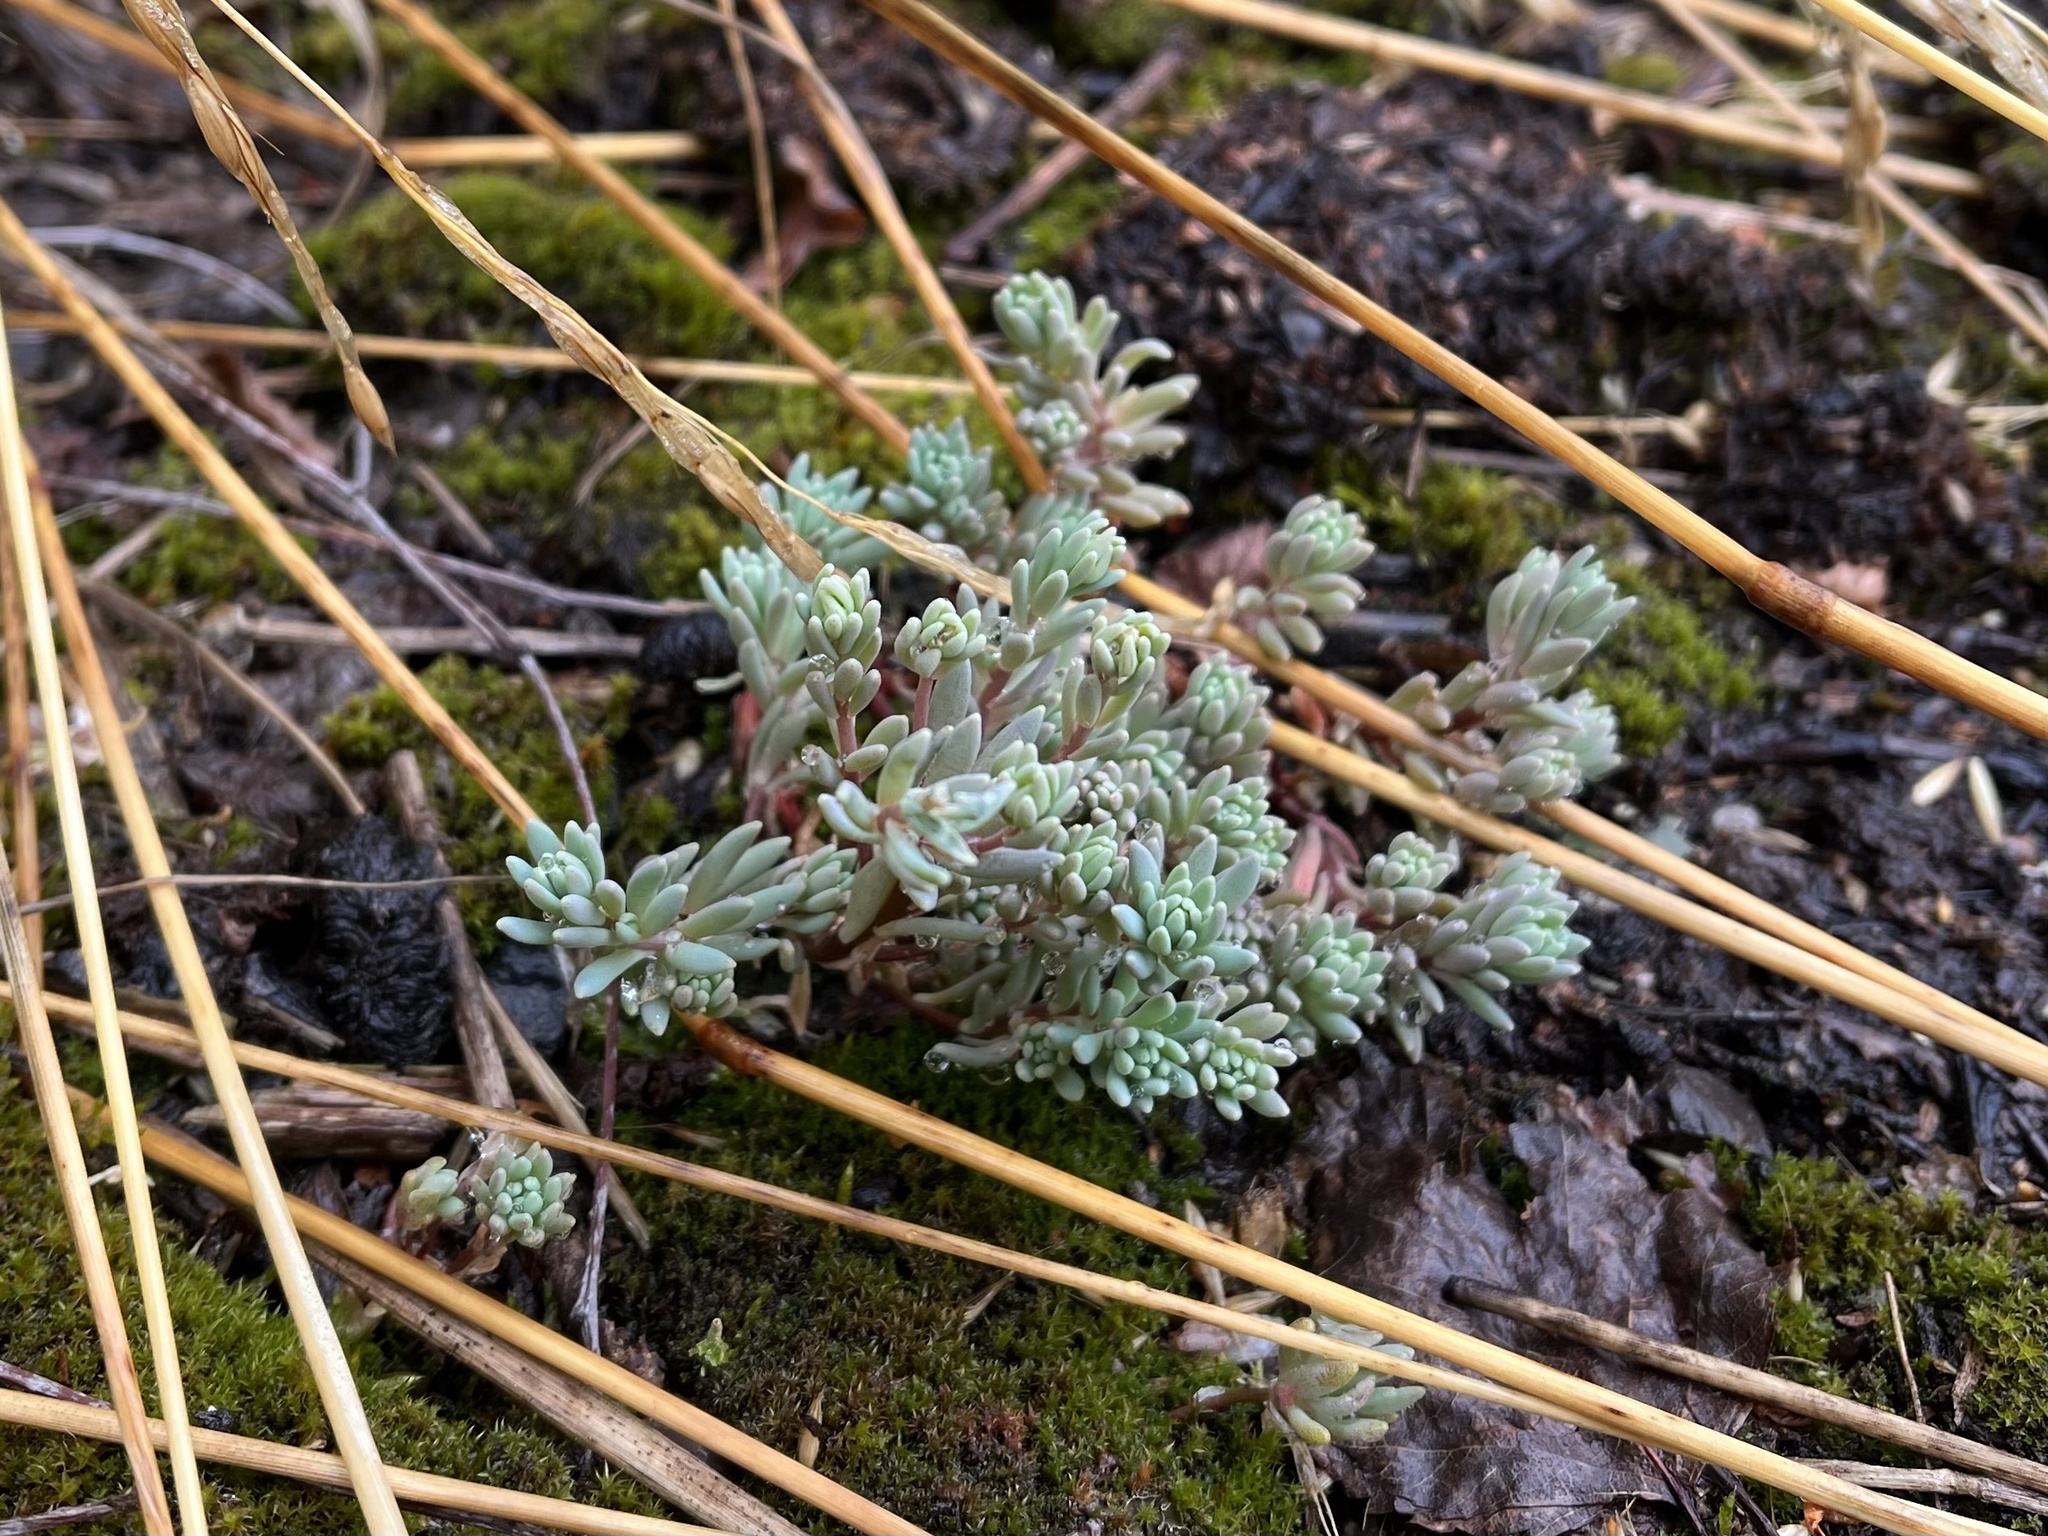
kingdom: Plantae
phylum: Tracheophyta
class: Magnoliopsida
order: Saxifragales
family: Crassulaceae
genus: Sedum
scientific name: Sedum hispanicum
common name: Spanish stonecrop
